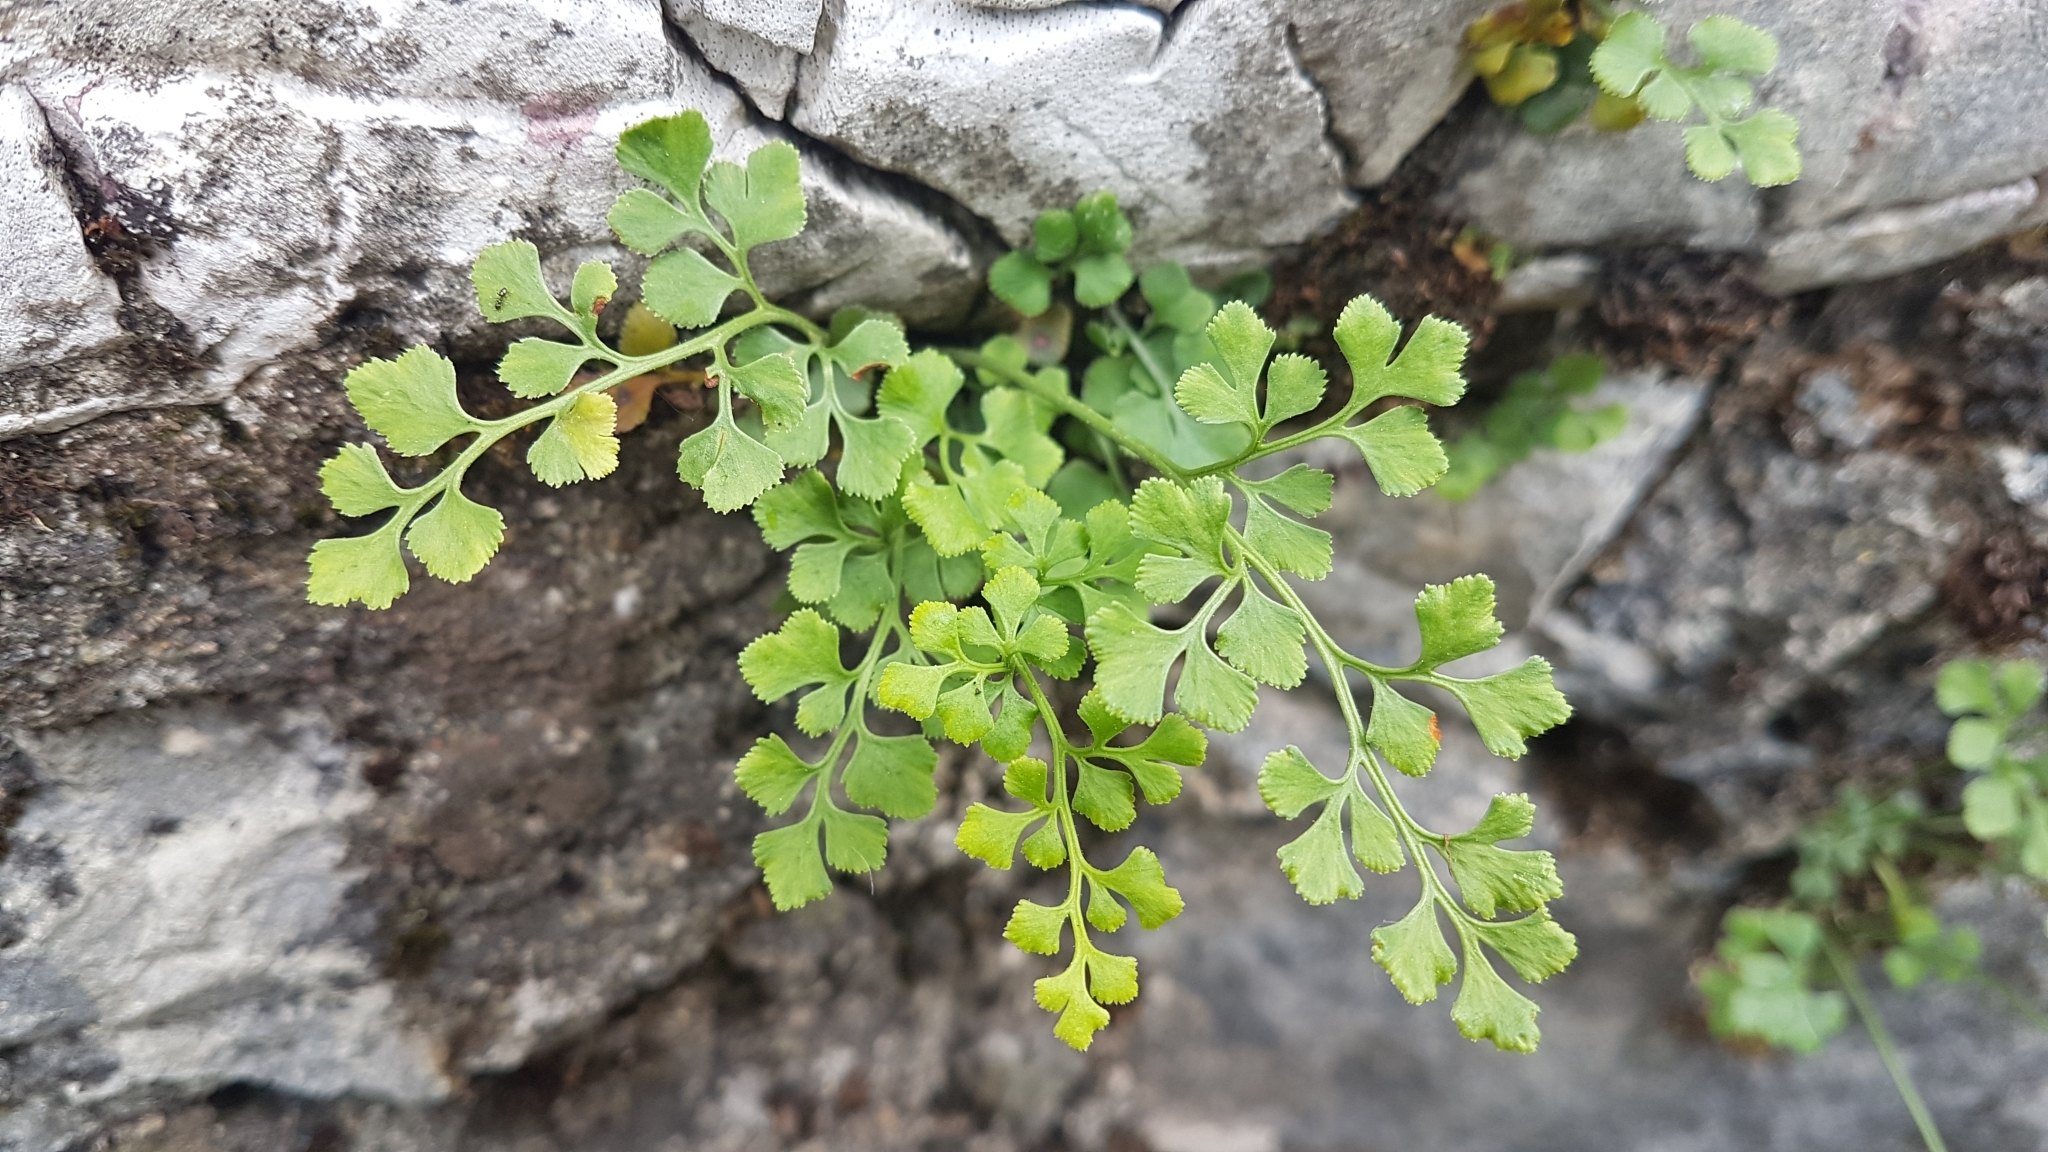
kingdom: Plantae
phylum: Tracheophyta
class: Polypodiopsida
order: Polypodiales
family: Aspleniaceae
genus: Asplenium
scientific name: Asplenium ruta-muraria
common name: Wall-rue
